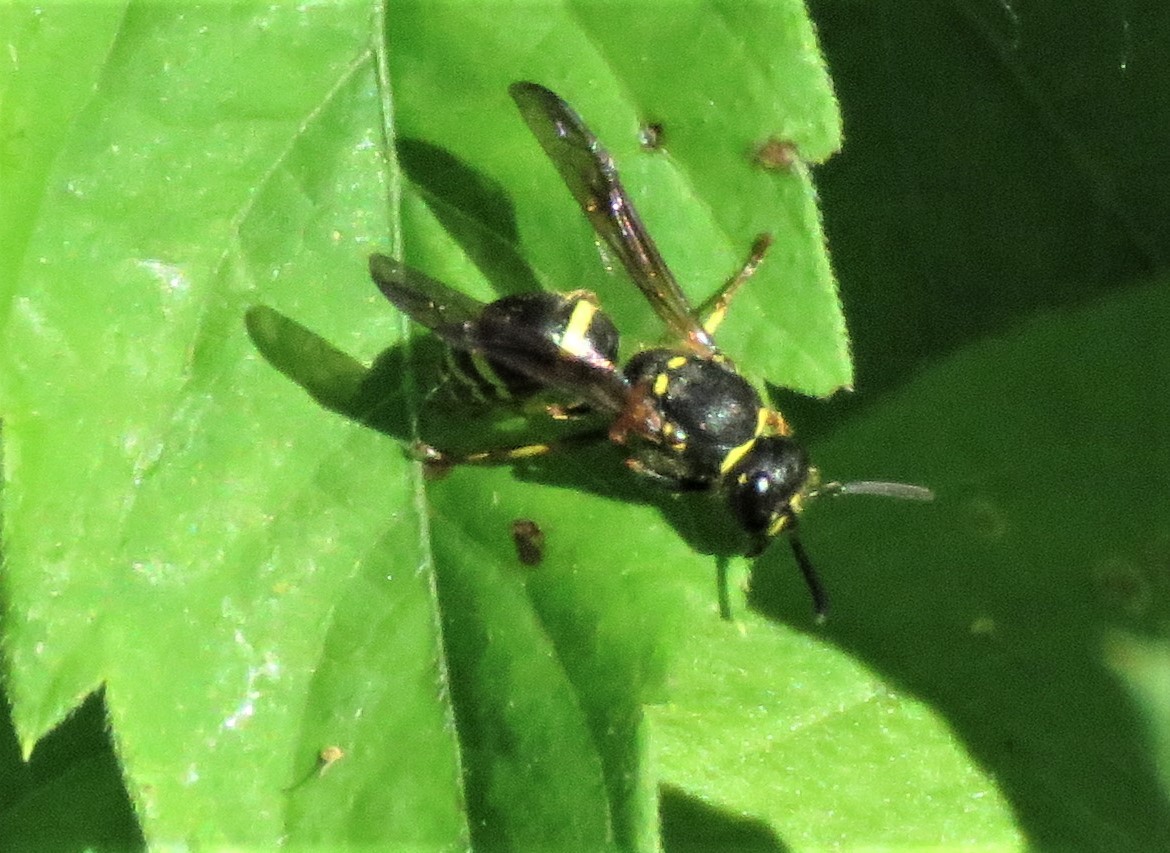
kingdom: Animalia
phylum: Arthropoda
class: Insecta
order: Hymenoptera
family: Vespidae
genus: Ancistrocerus
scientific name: Ancistrocerus
